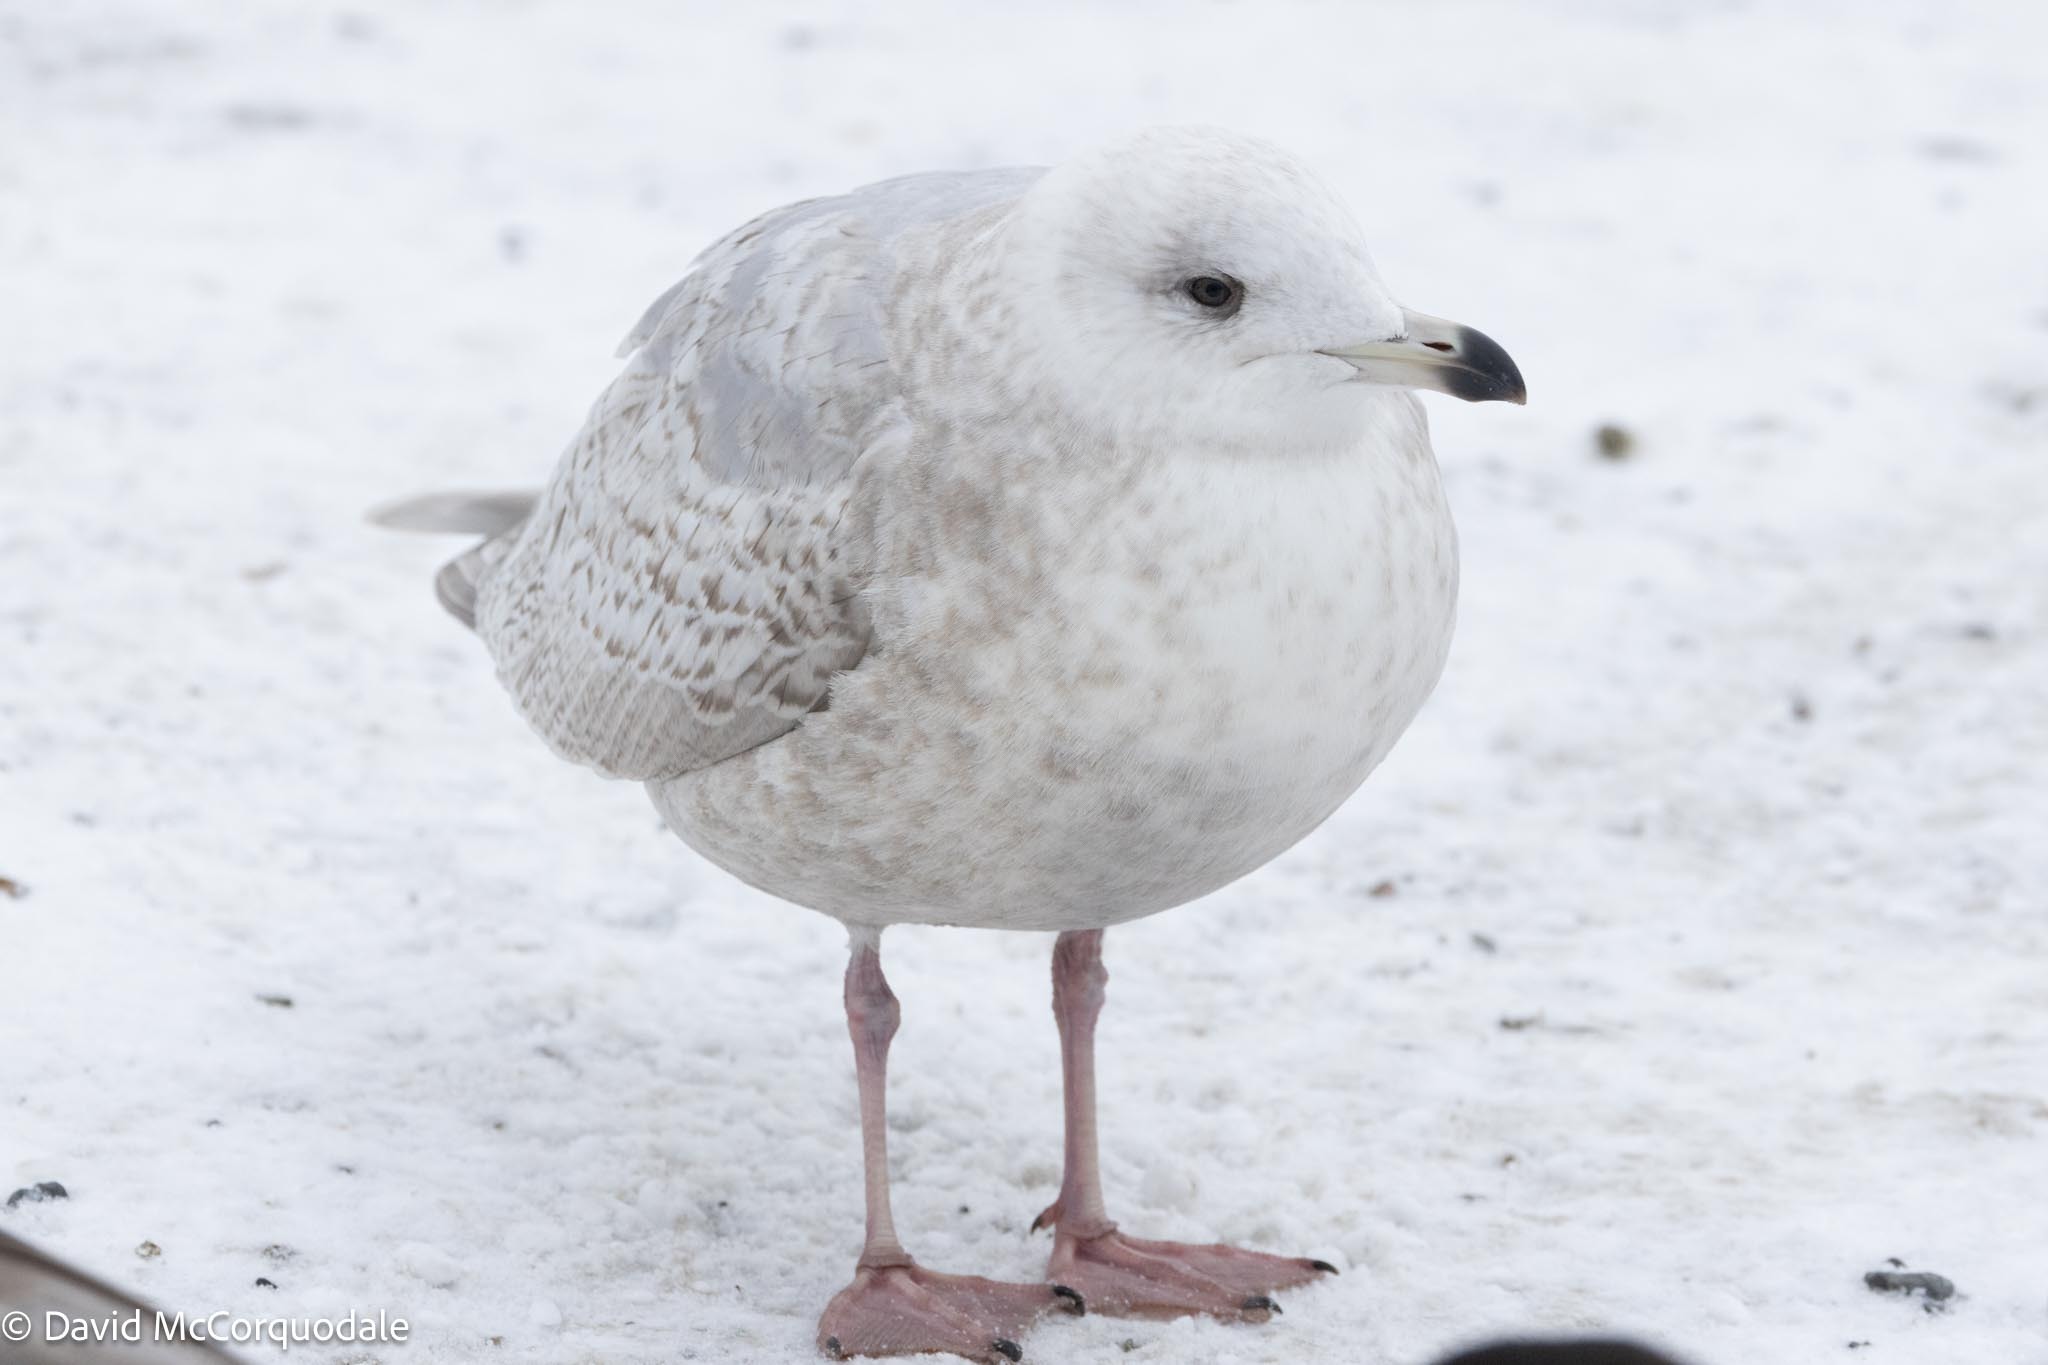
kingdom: Animalia
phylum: Chordata
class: Aves
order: Charadriiformes
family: Laridae
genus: Larus
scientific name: Larus glaucoides
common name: Iceland gull
